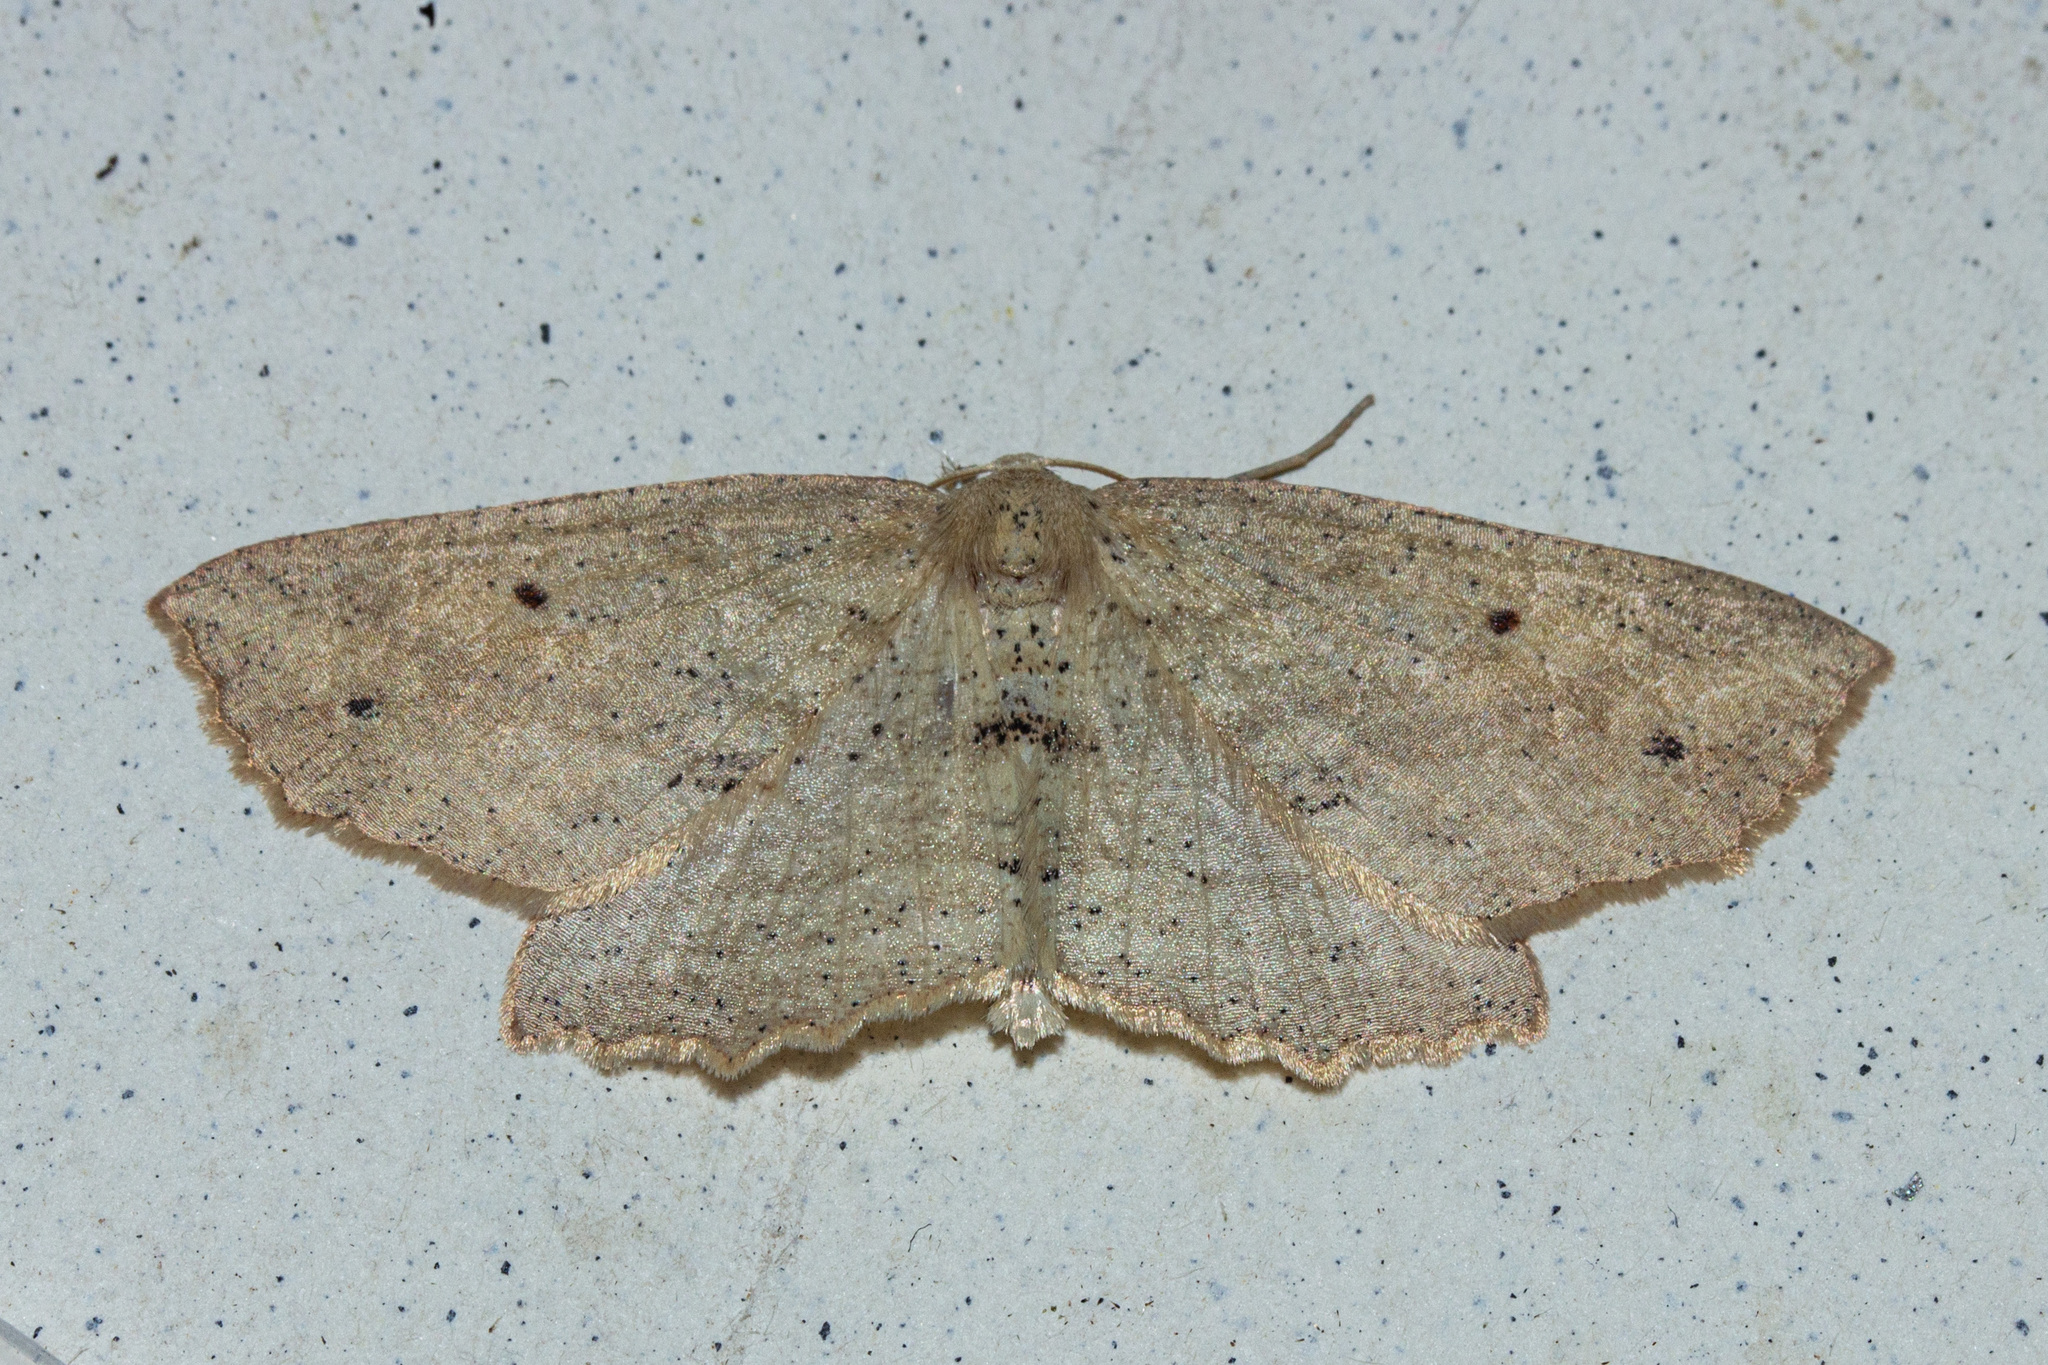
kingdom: Animalia
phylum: Arthropoda
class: Insecta
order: Lepidoptera
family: Geometridae
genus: Xyridacma
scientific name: Xyridacma veronicae
